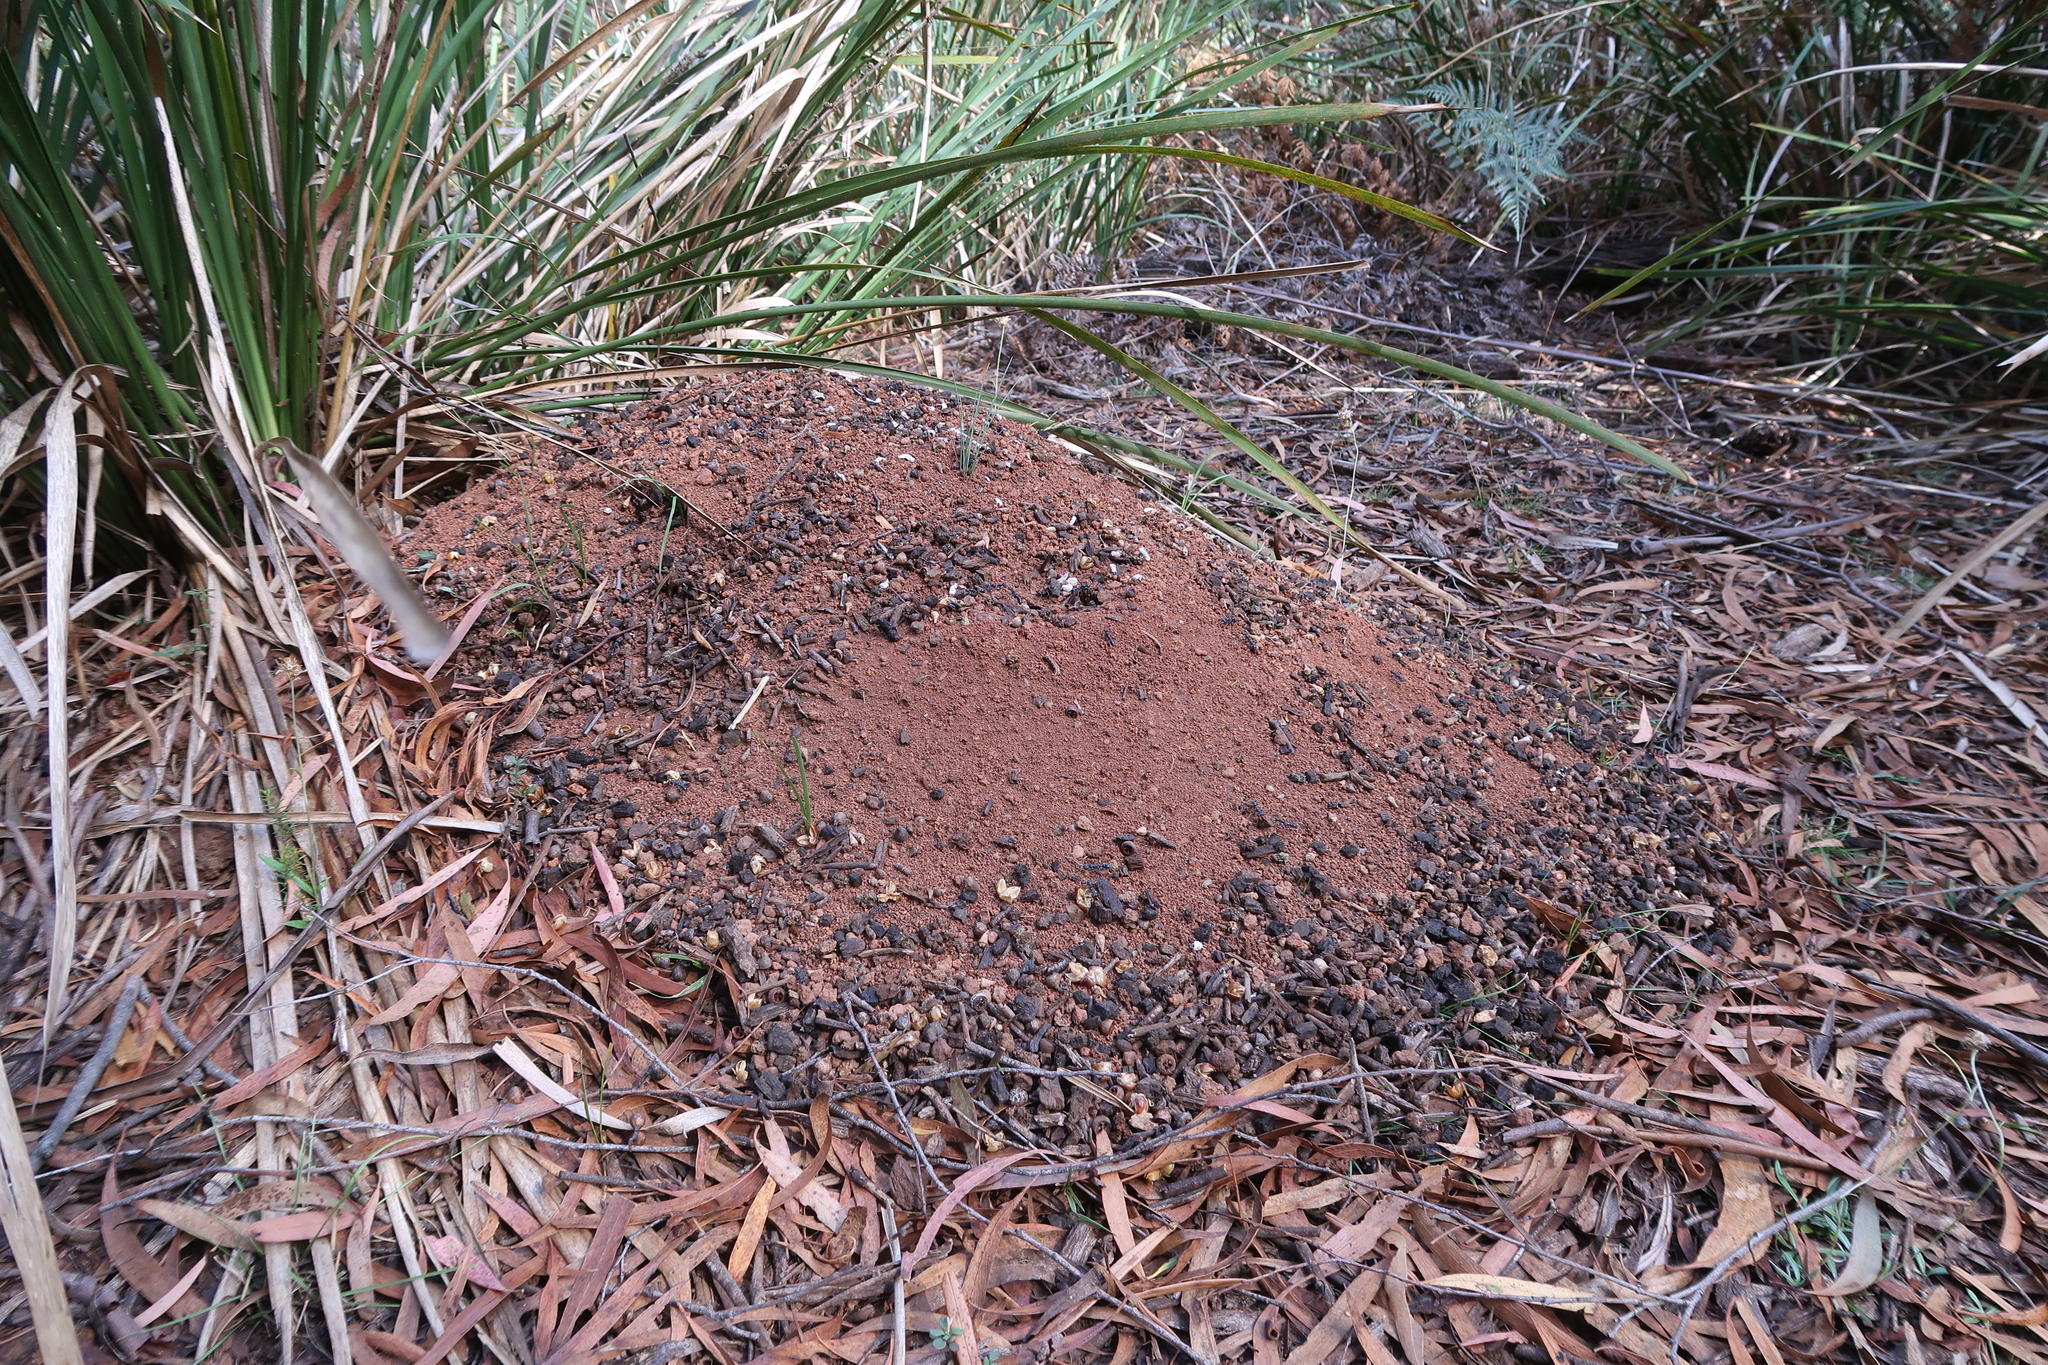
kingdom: Animalia
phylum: Arthropoda
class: Insecta
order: Hymenoptera
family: Formicidae
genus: Myrmecia
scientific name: Myrmecia pilosula
